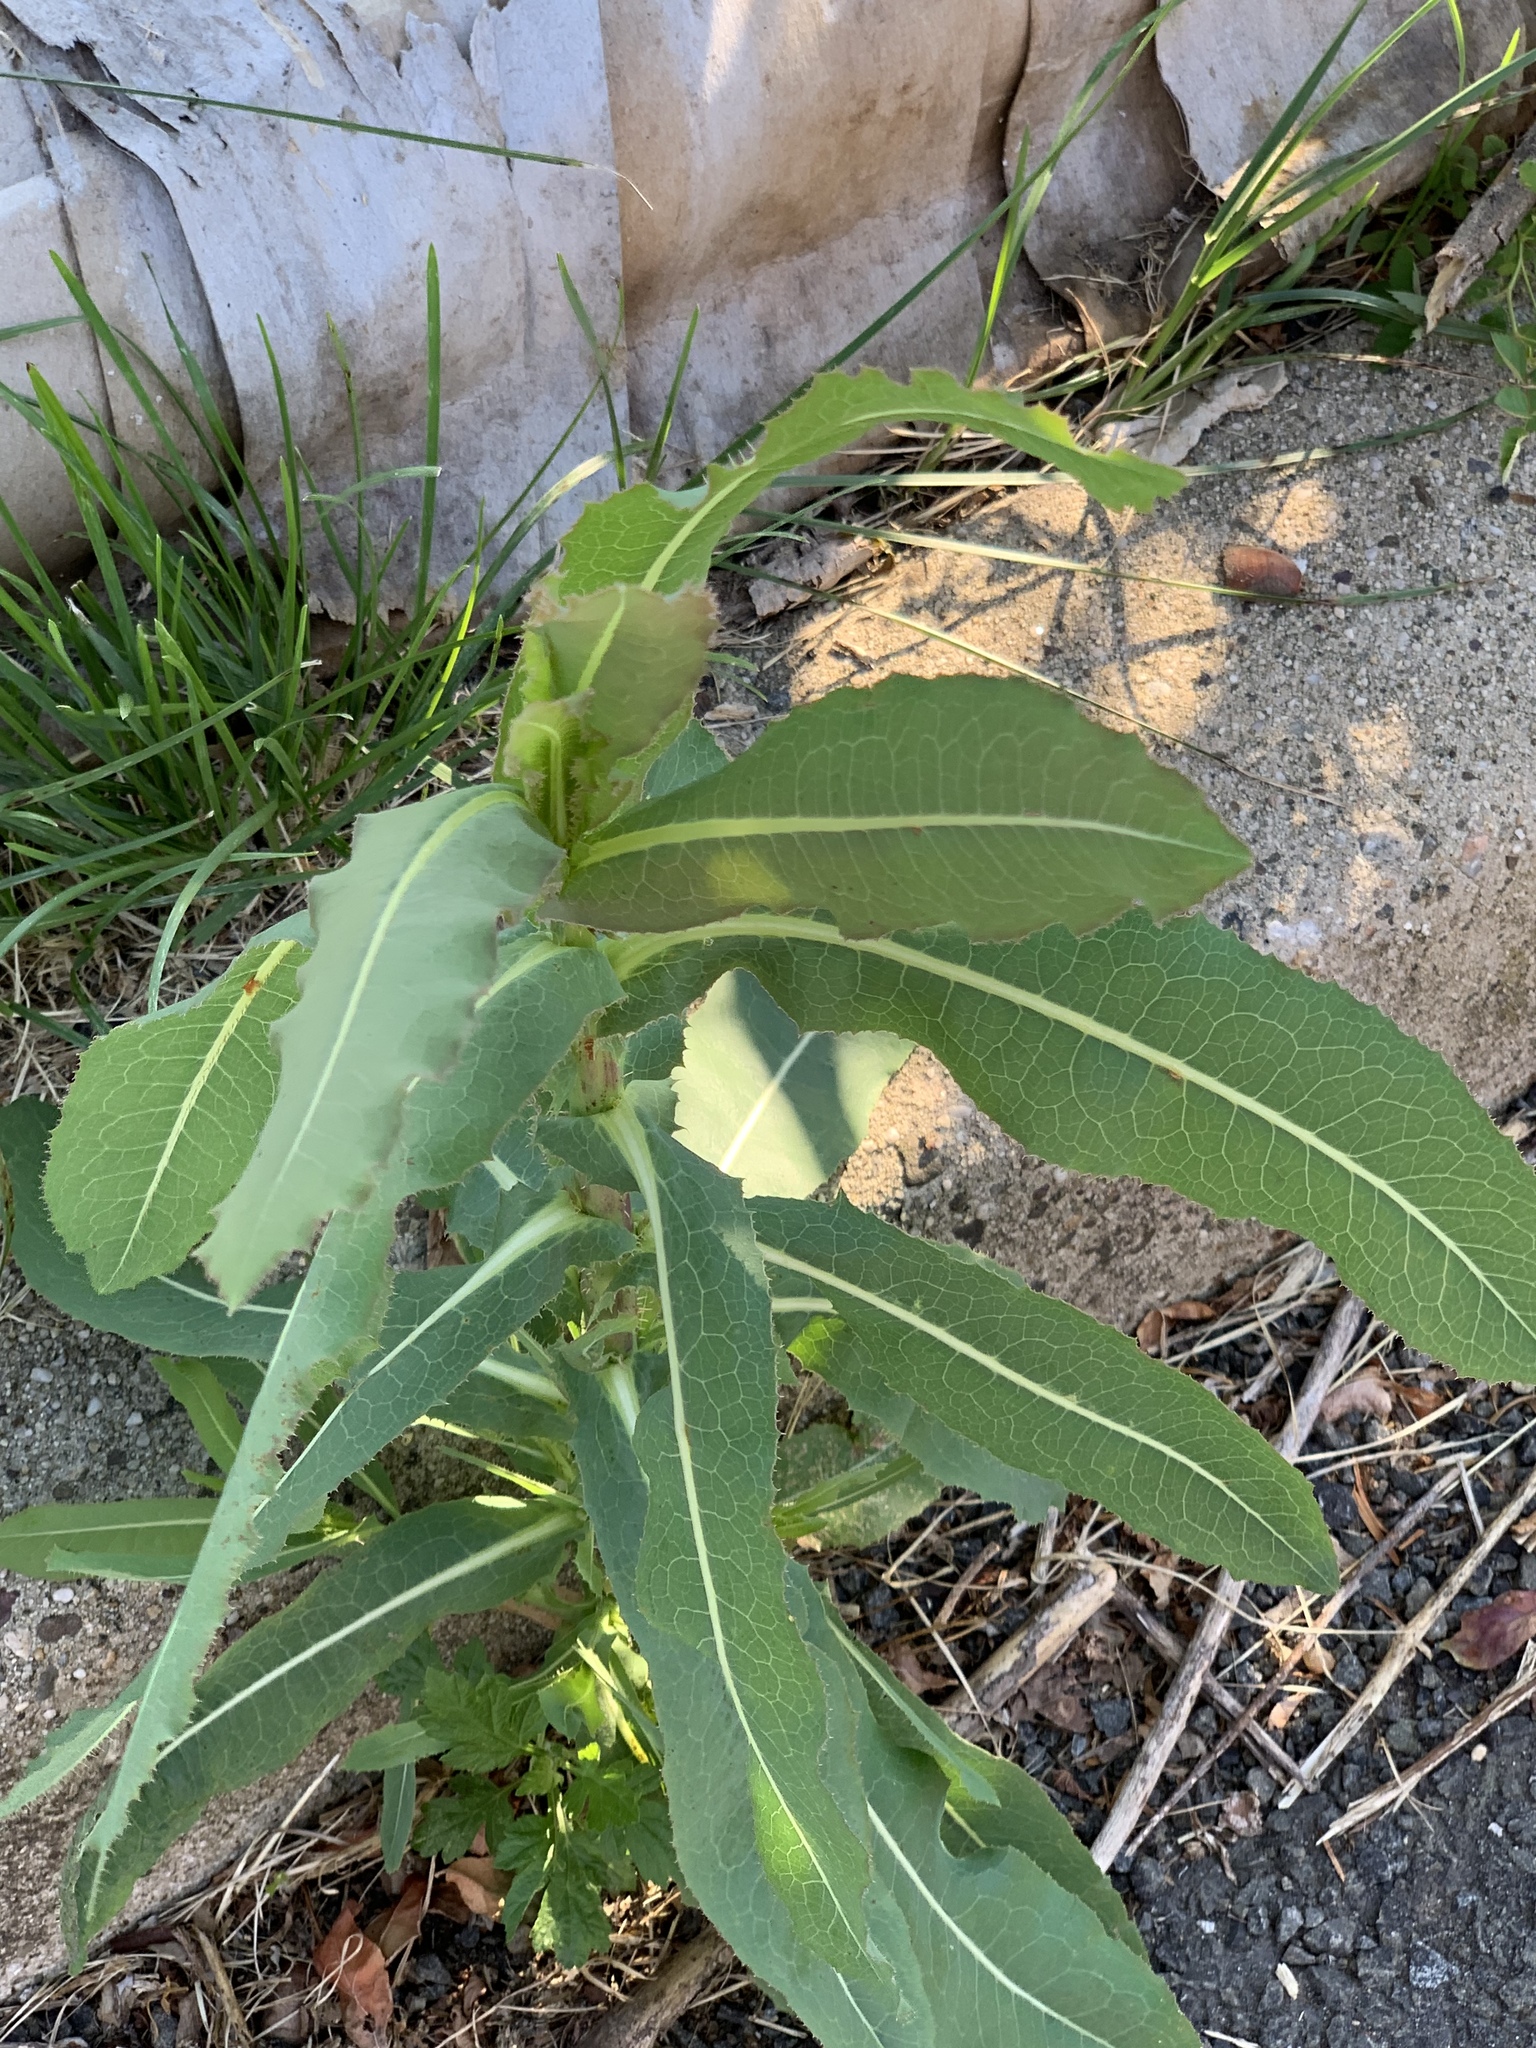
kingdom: Plantae
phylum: Tracheophyta
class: Magnoliopsida
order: Asterales
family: Asteraceae
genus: Lactuca
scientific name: Lactuca serriola
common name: Prickly lettuce
